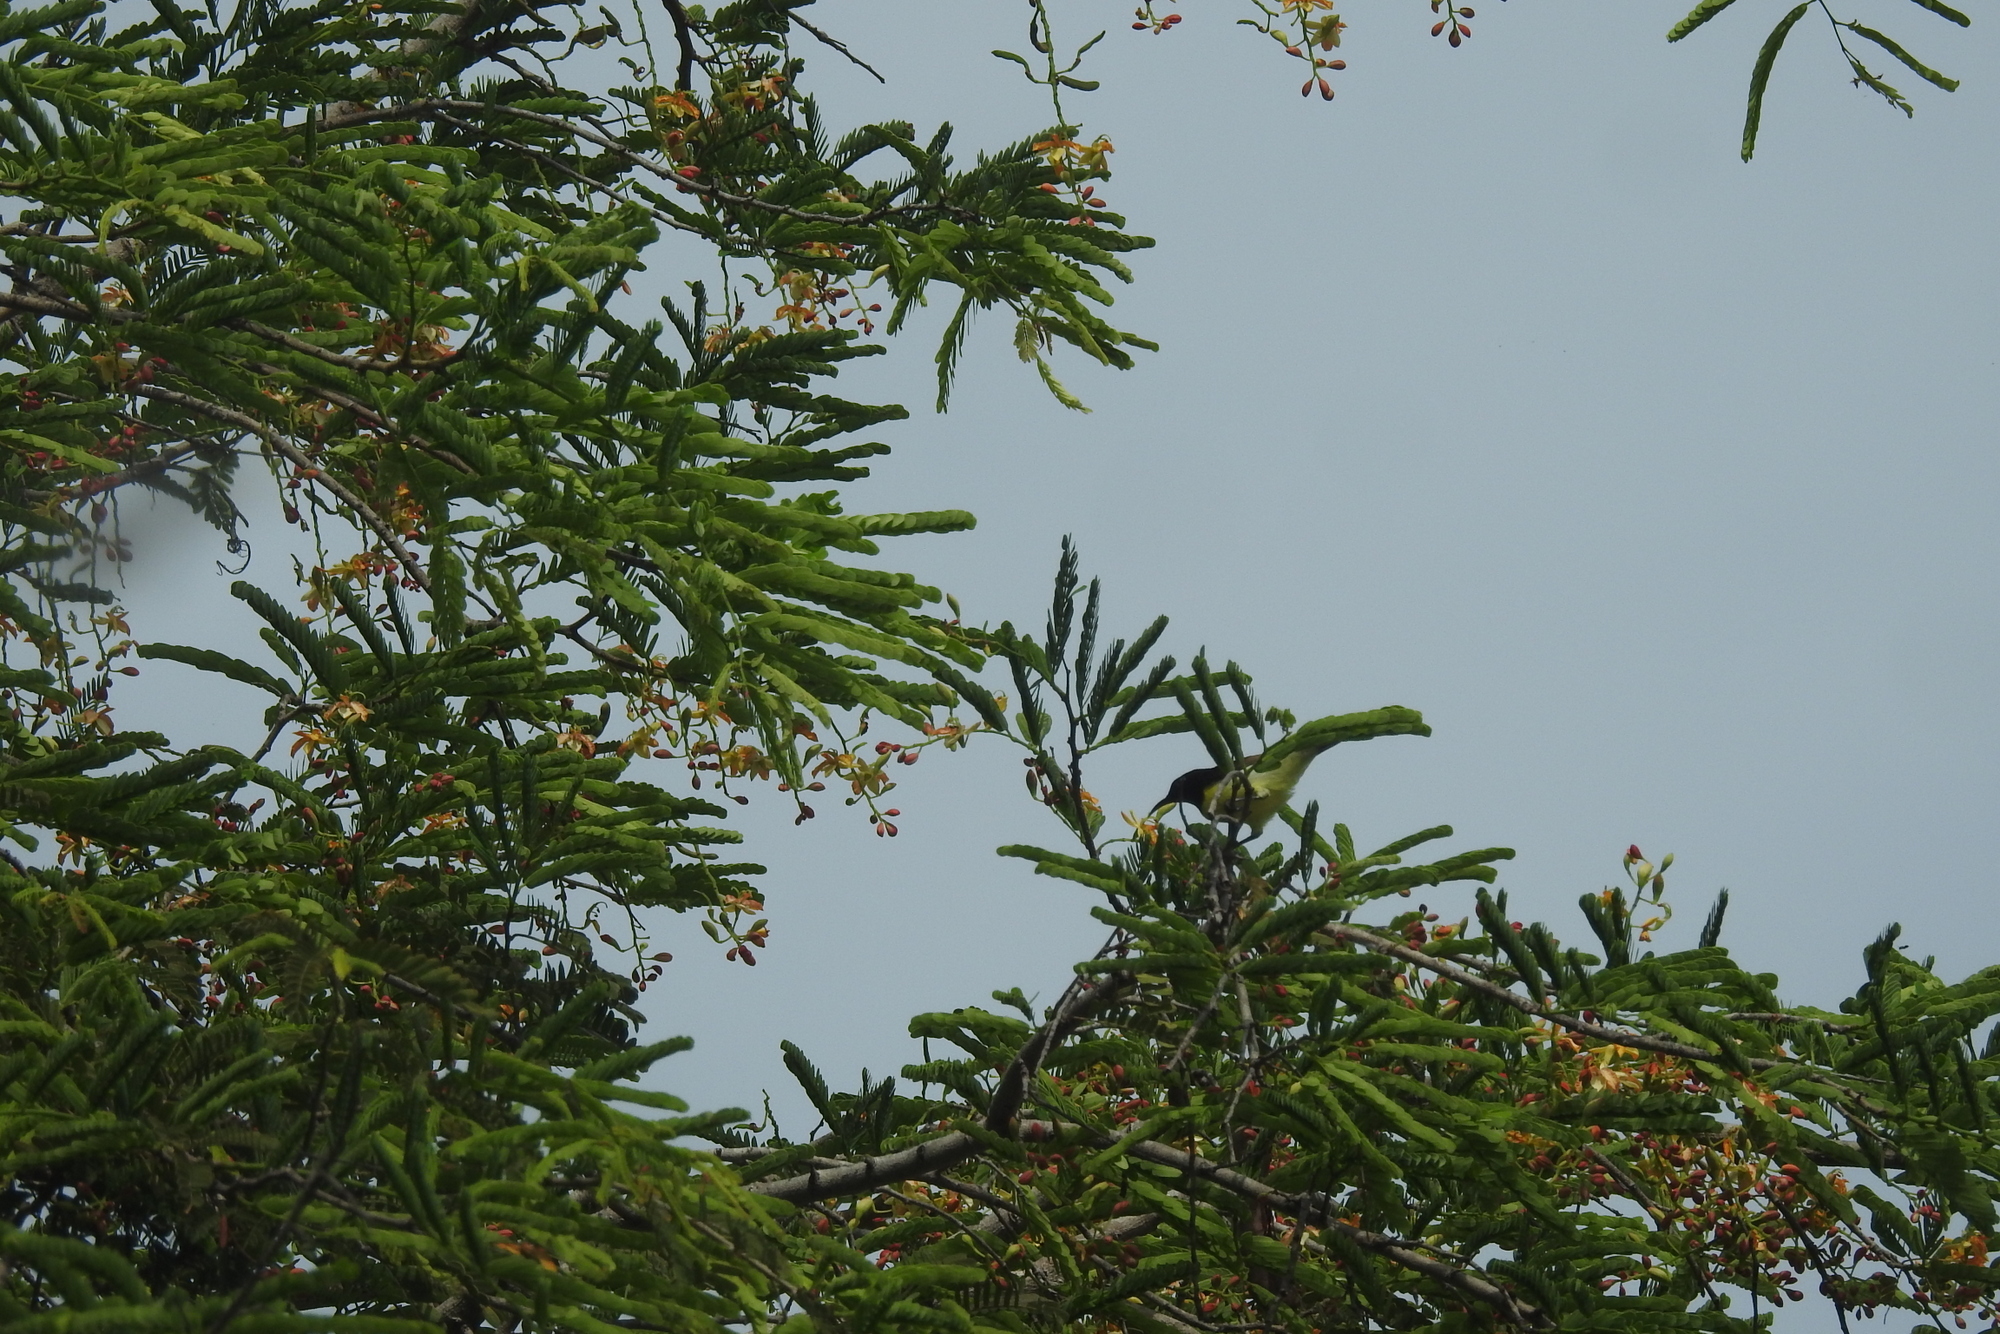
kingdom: Animalia
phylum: Chordata
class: Aves
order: Passeriformes
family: Nectariniidae
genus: Leptocoma
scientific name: Leptocoma zeylonica
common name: Purple-rumped sunbird
